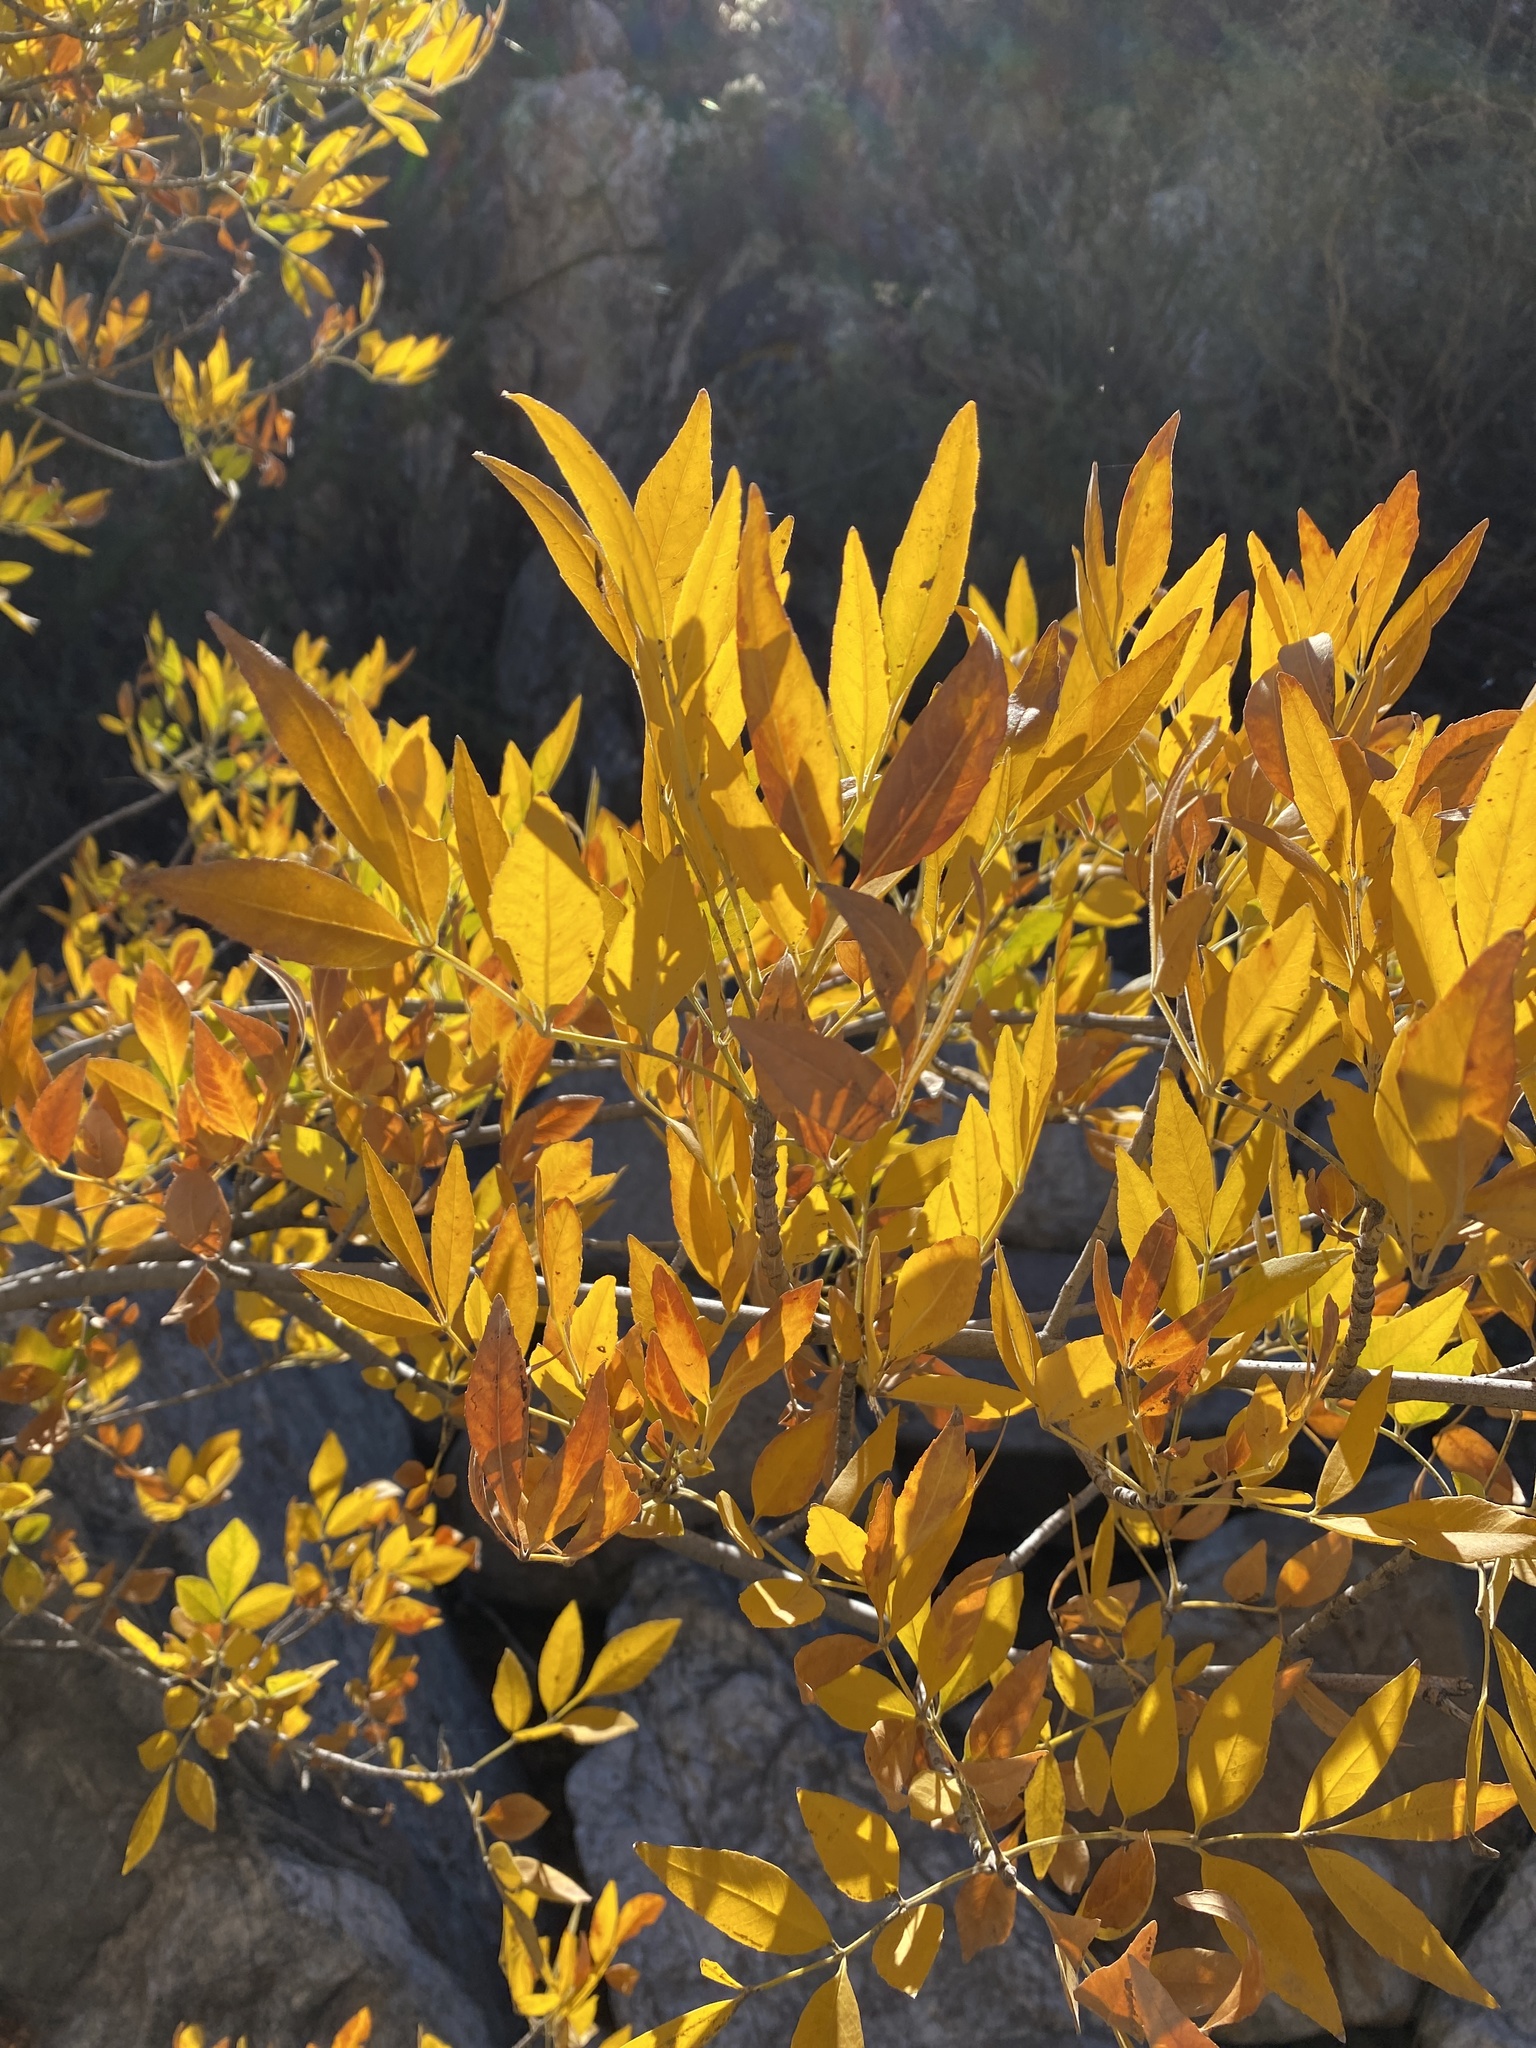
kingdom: Plantae
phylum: Tracheophyta
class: Magnoliopsida
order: Lamiales
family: Oleaceae
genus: Fraxinus
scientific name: Fraxinus velutina
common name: Arizon ash
